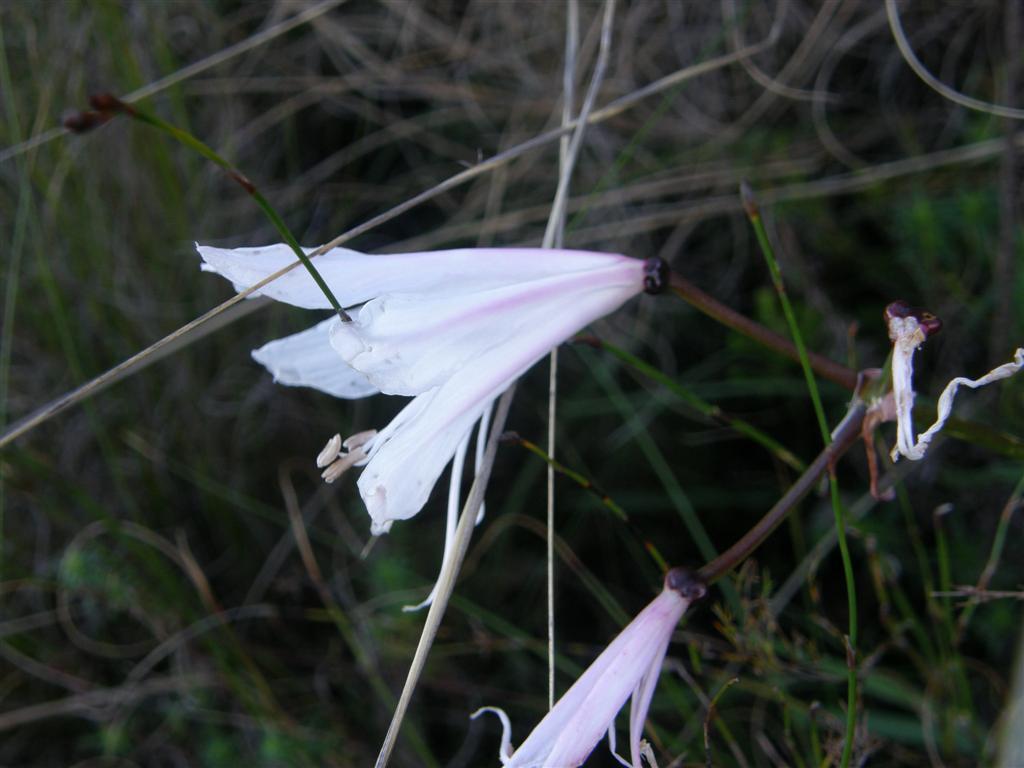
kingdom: Plantae
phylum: Tracheophyta
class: Liliopsida
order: Asparagales
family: Amaryllidaceae
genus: Nerine
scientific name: Nerine pudica
